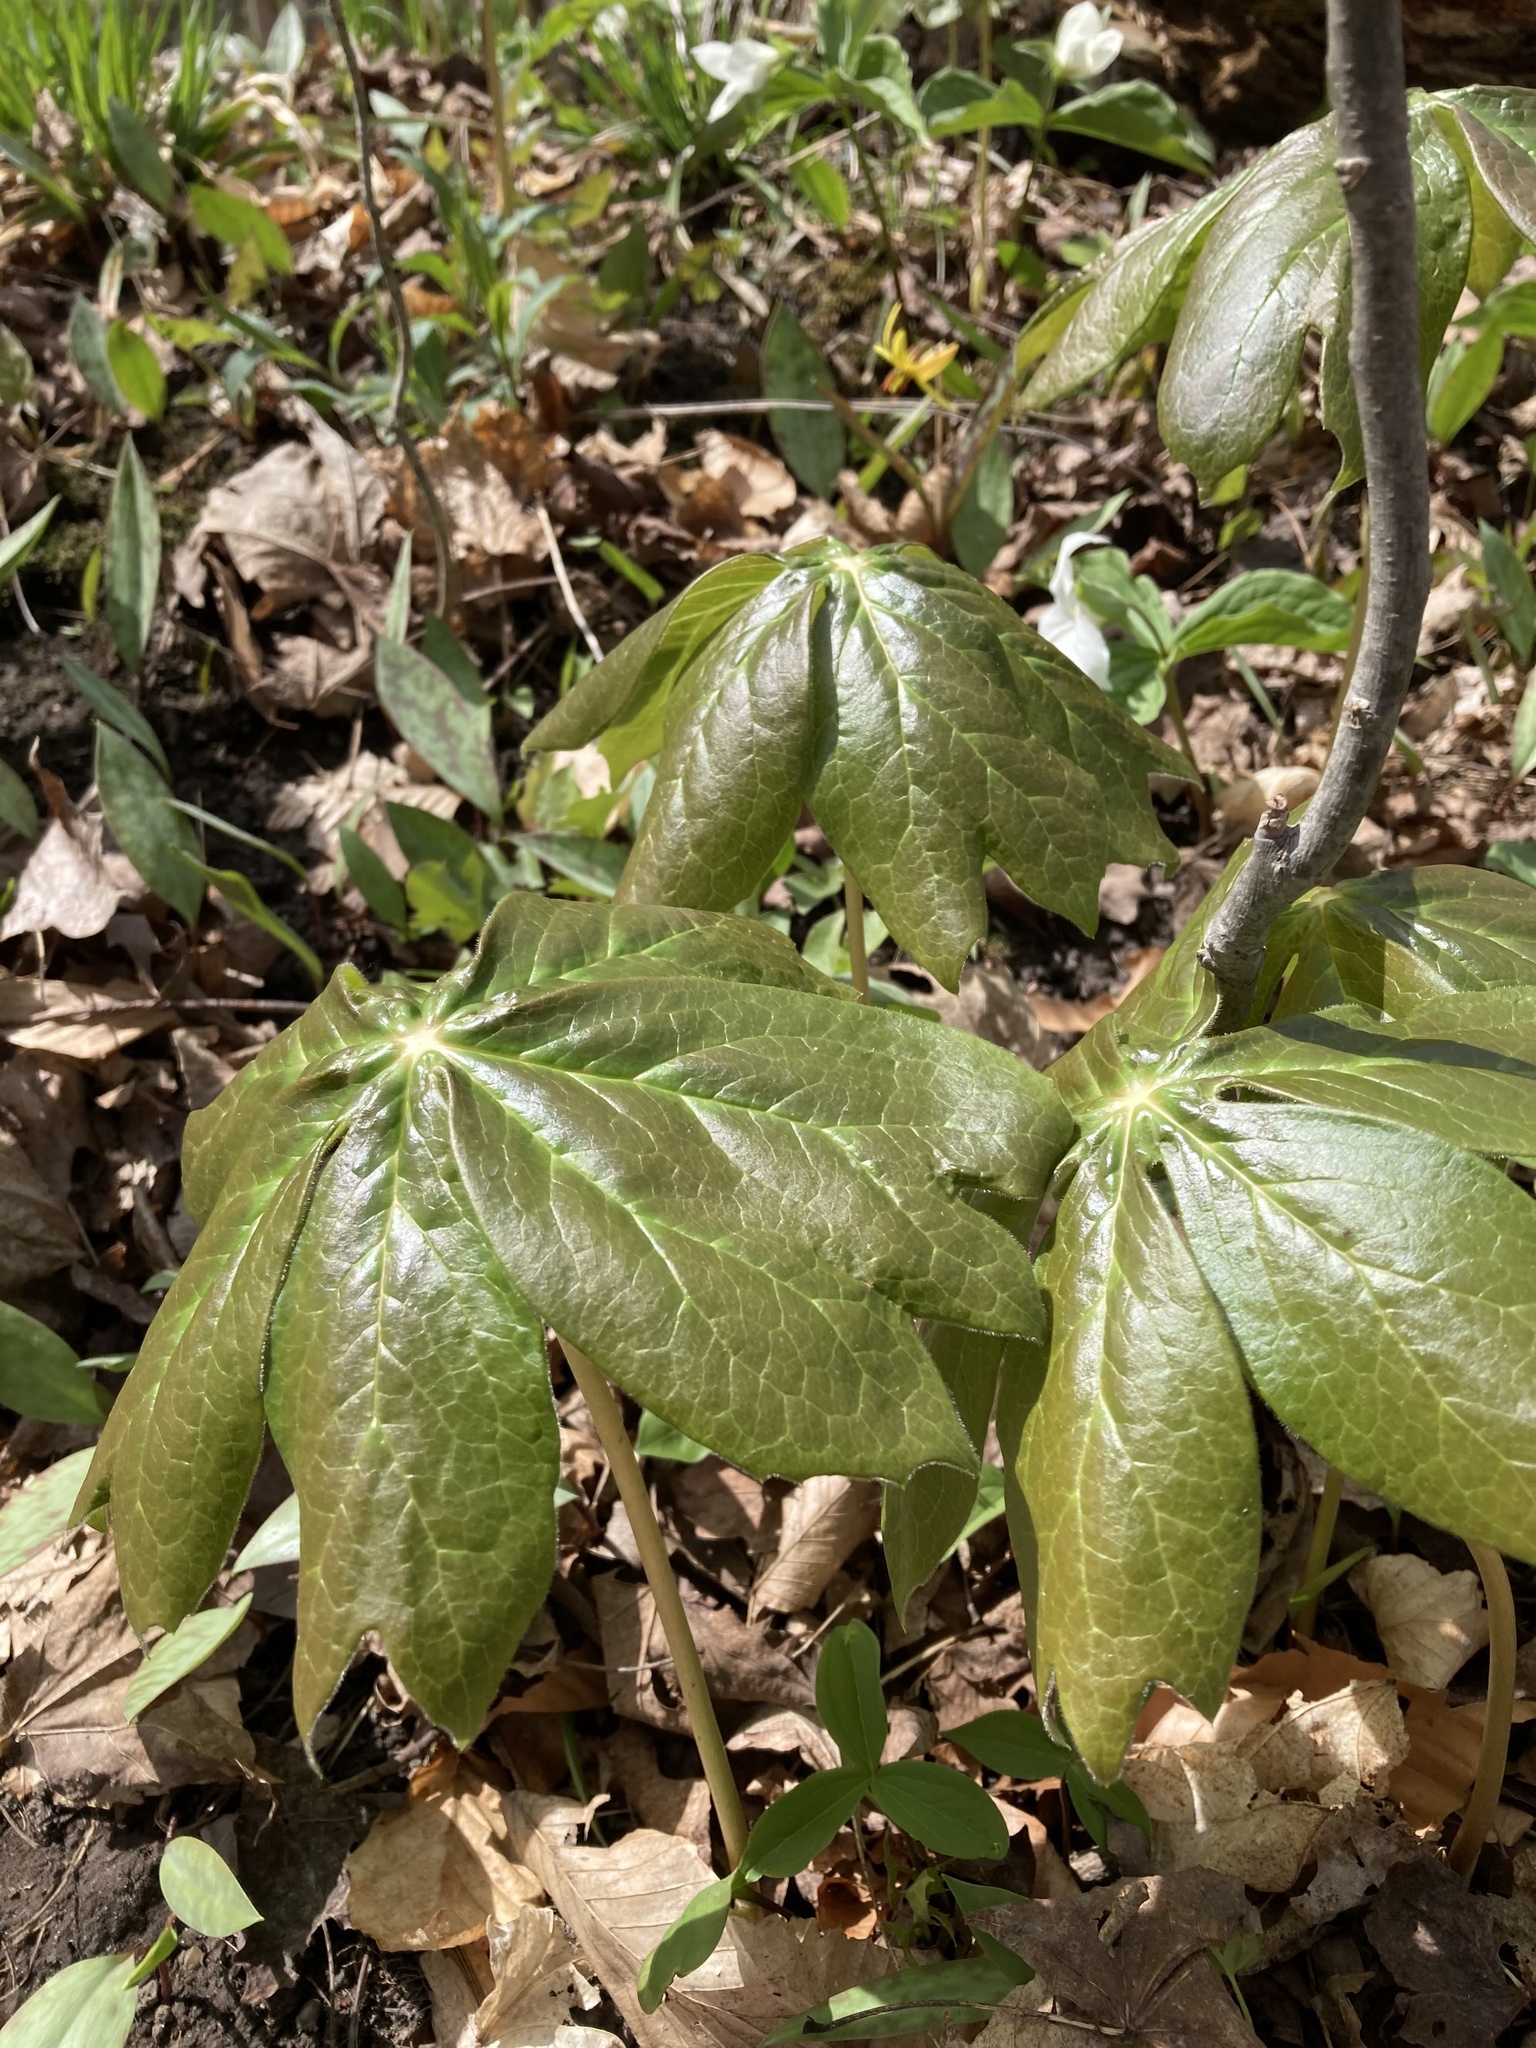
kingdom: Plantae
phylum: Tracheophyta
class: Magnoliopsida
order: Ranunculales
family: Berberidaceae
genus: Podophyllum
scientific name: Podophyllum peltatum
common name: Wild mandrake
